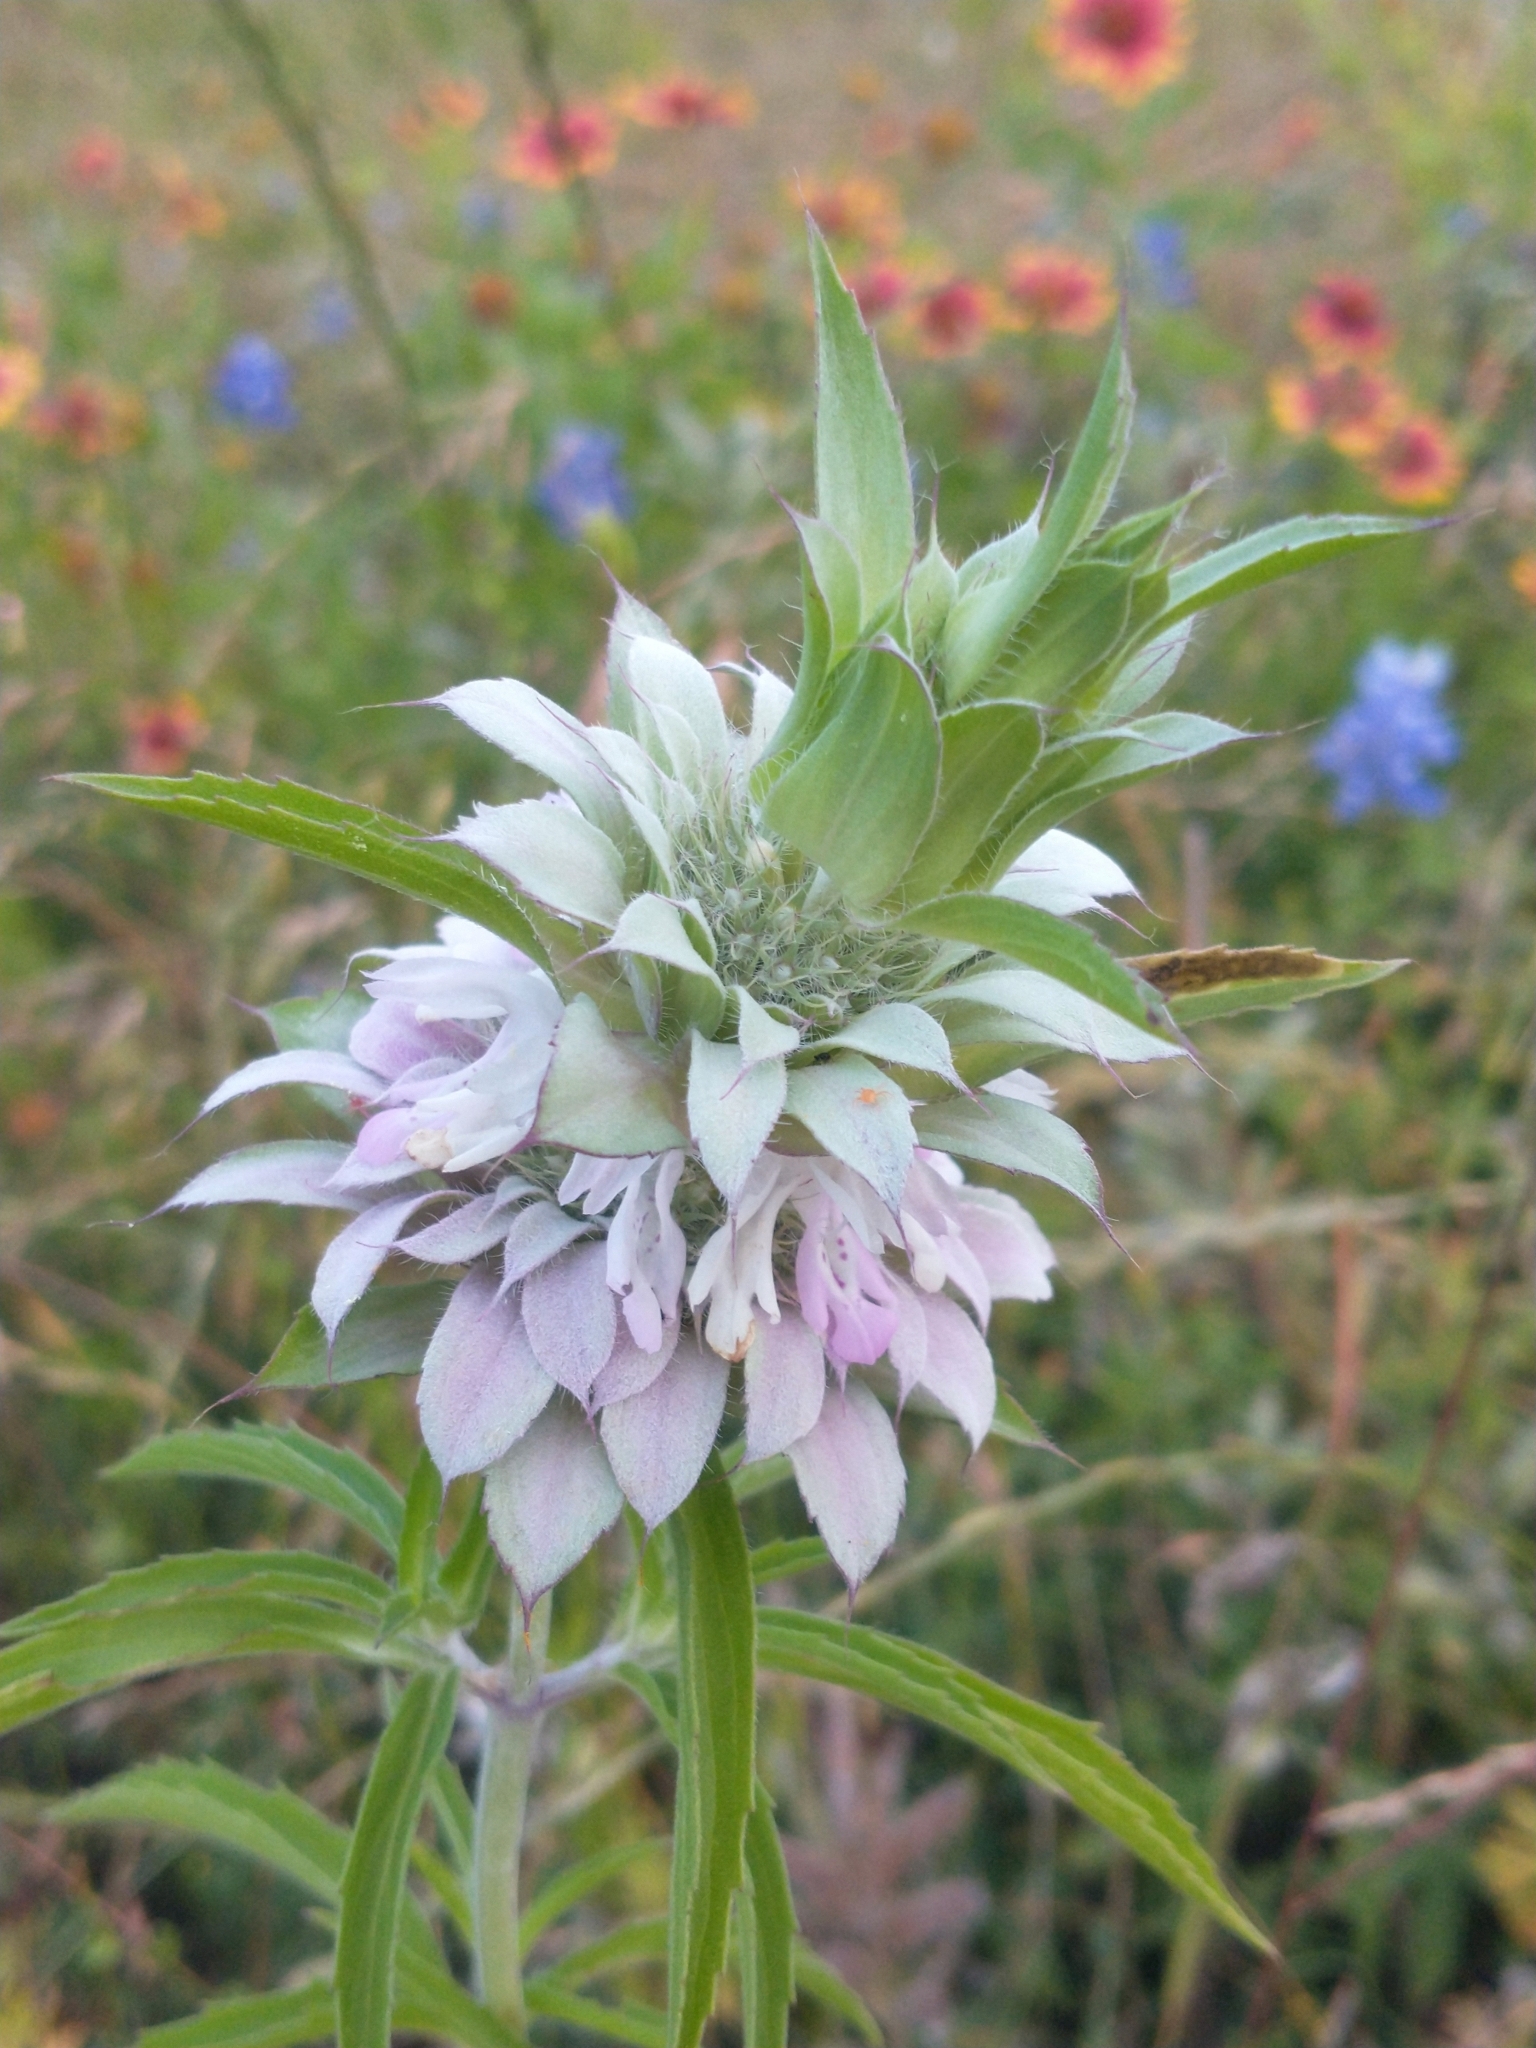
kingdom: Plantae
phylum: Tracheophyta
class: Magnoliopsida
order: Lamiales
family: Lamiaceae
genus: Monarda
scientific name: Monarda citriodora
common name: Lemon beebalm
